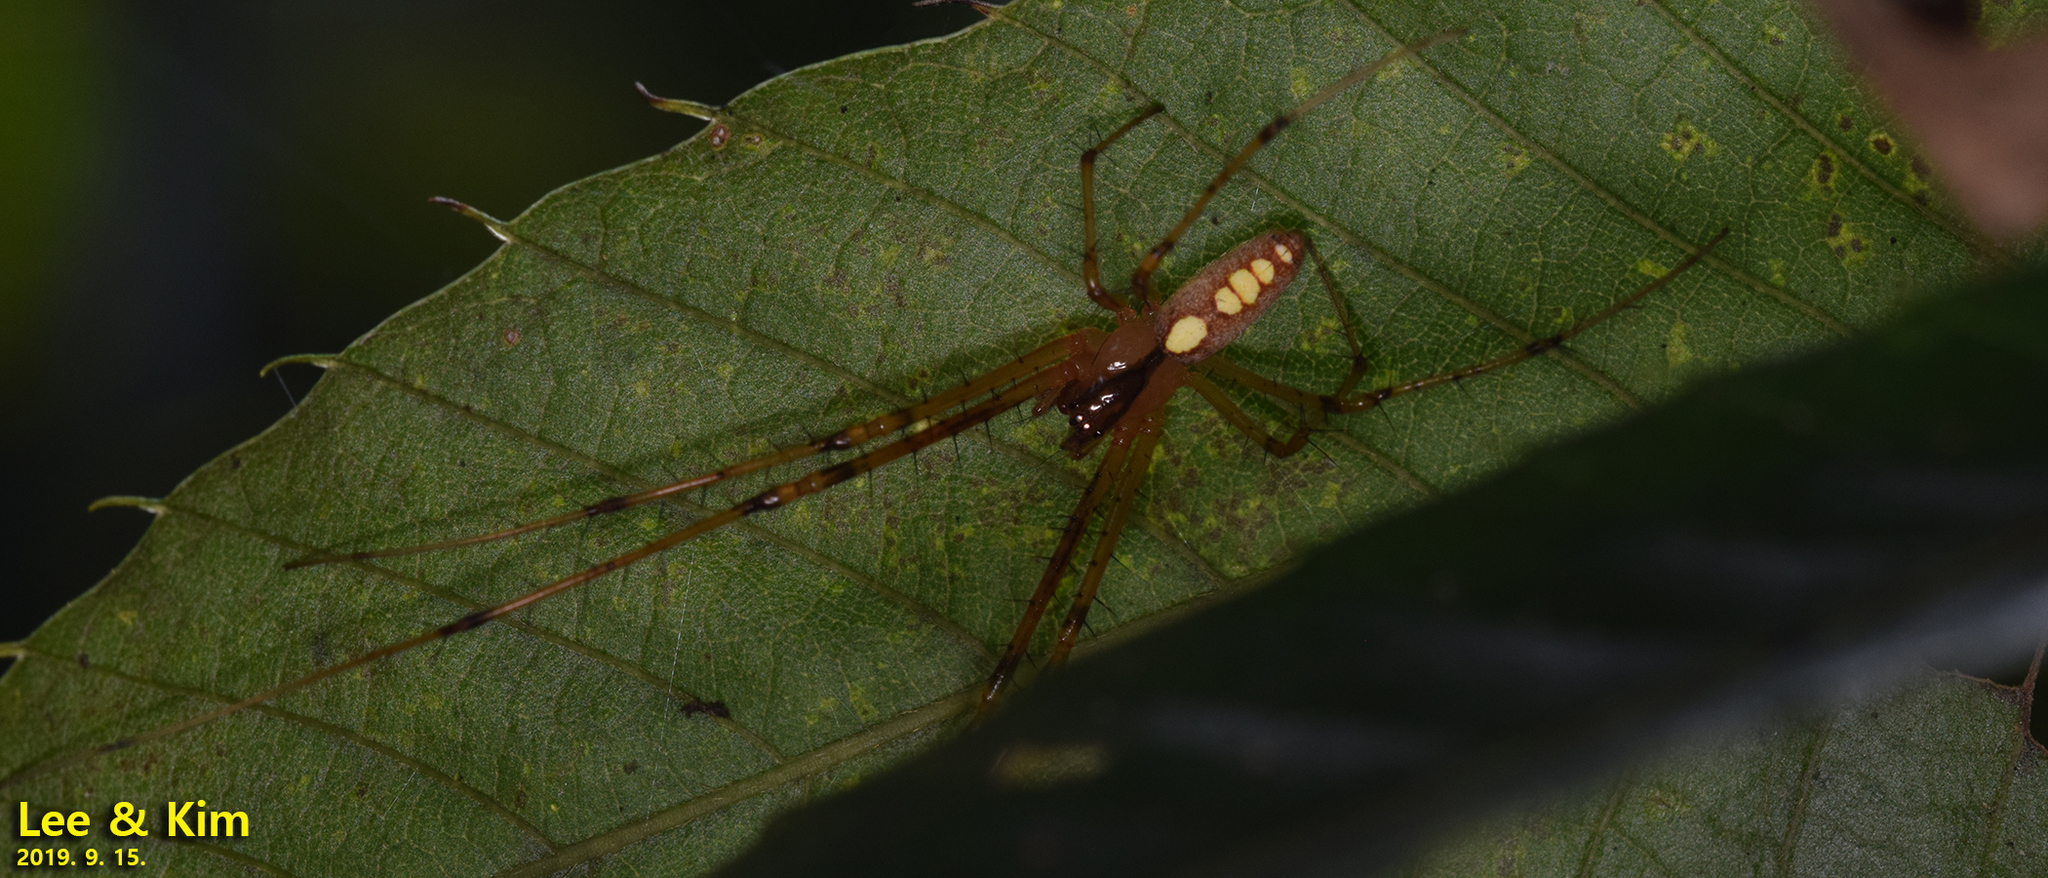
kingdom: Animalia
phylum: Arthropoda
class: Arachnida
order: Araneae
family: Tetragnathidae
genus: Metellina
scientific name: Metellina ornata
